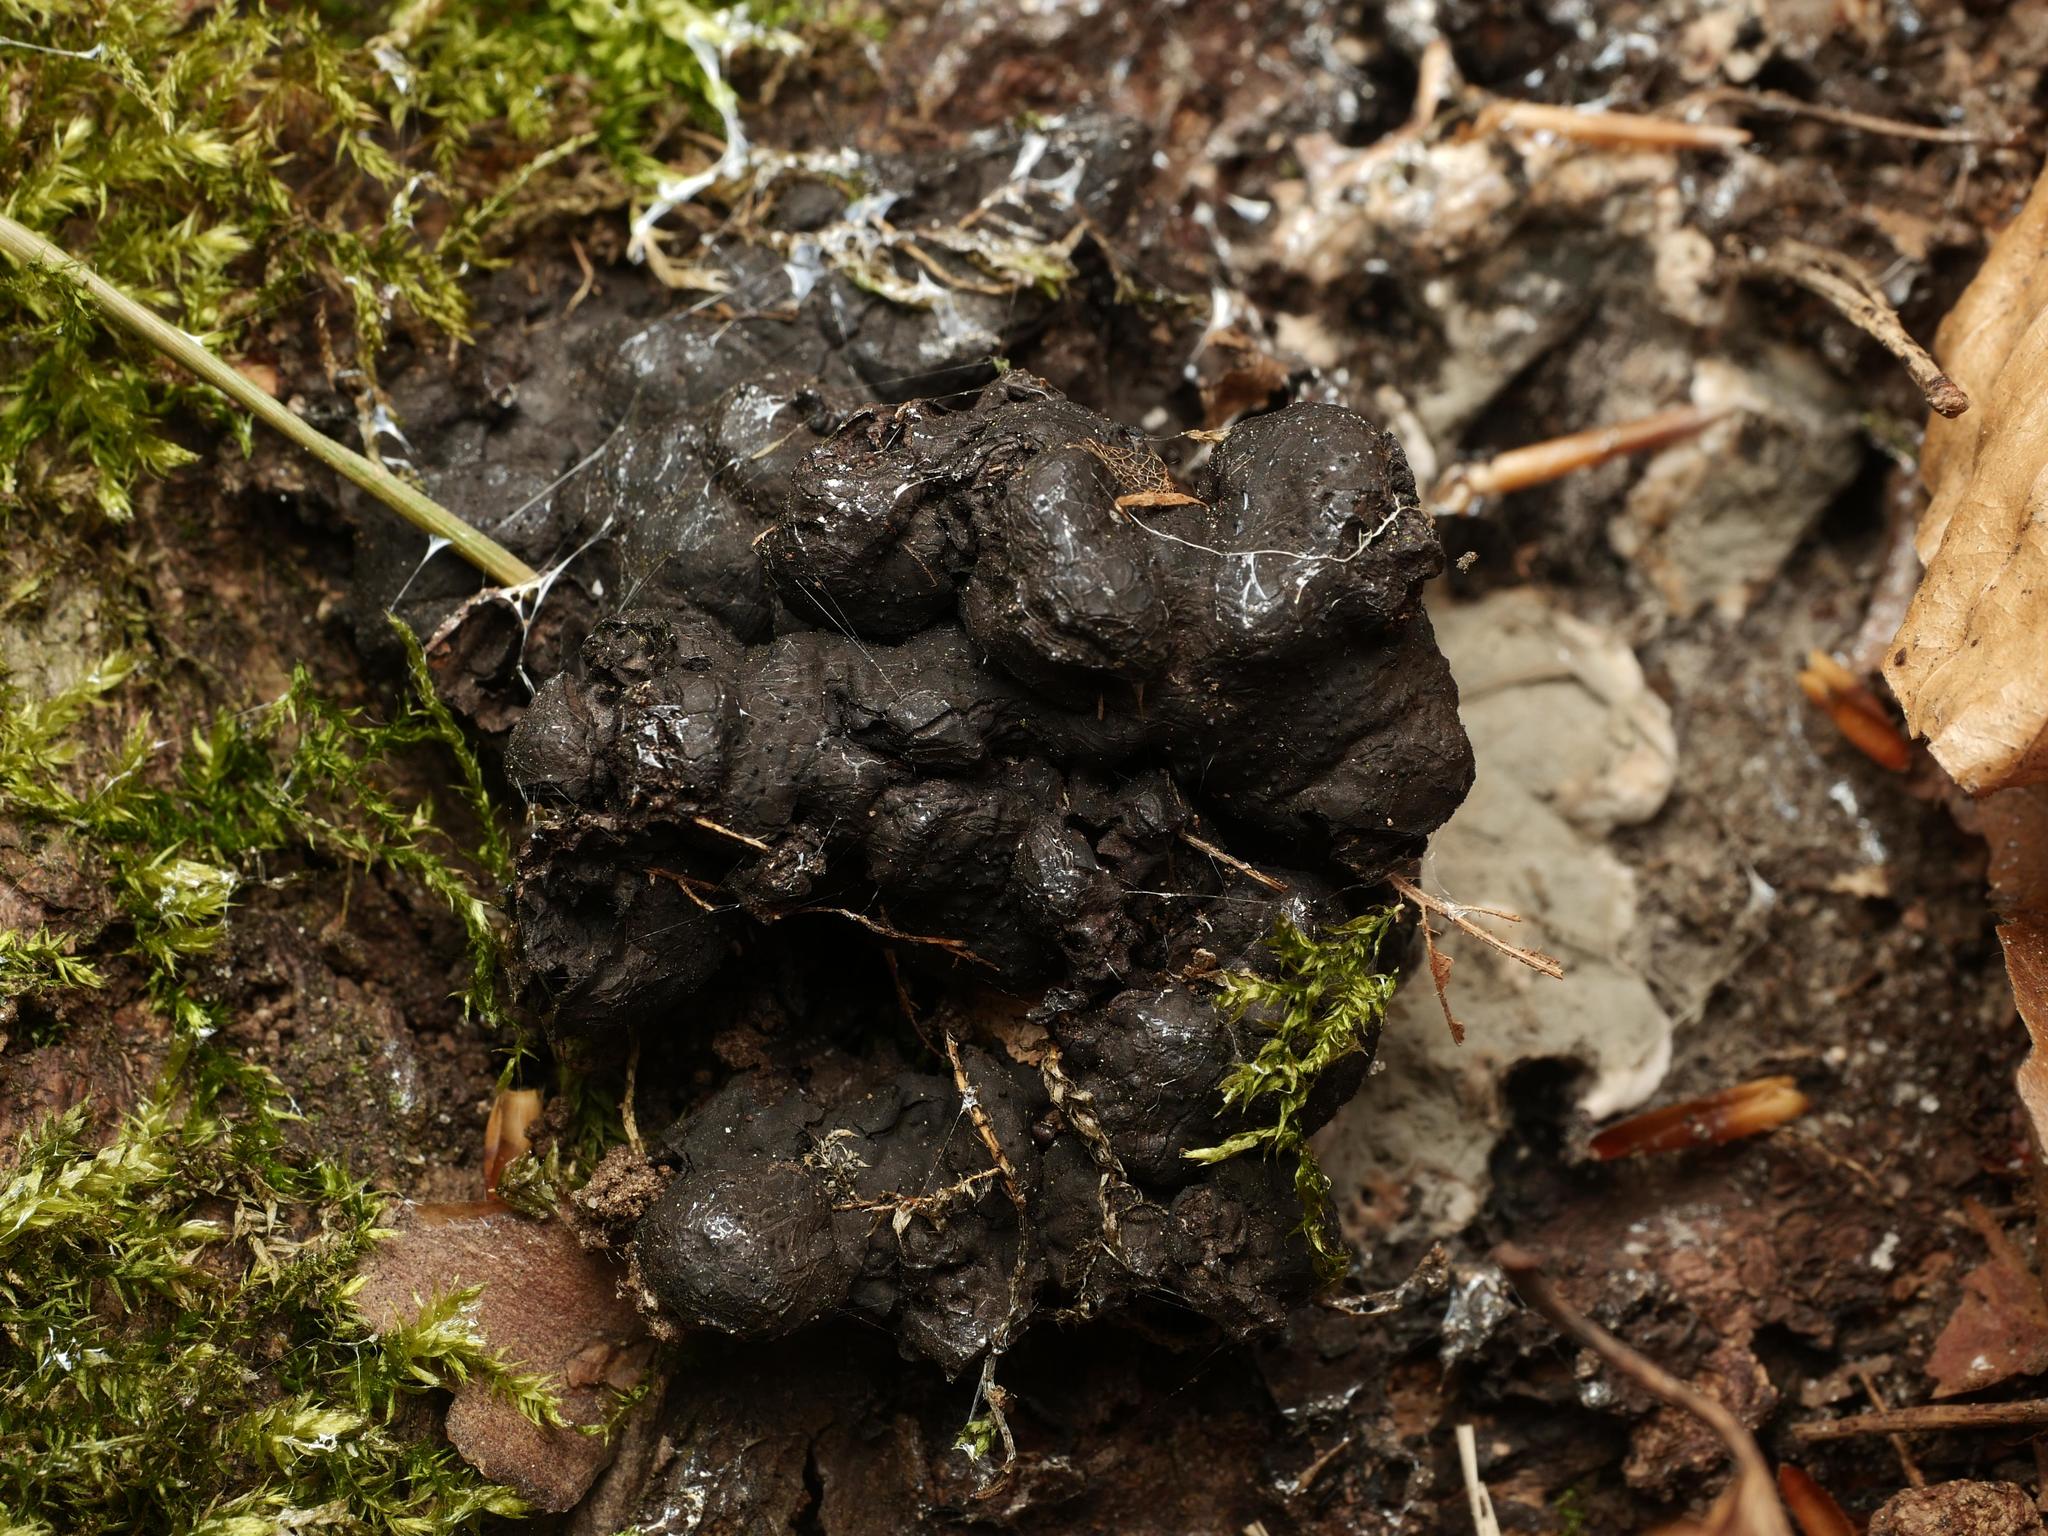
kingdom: Fungi
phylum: Ascomycota
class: Sordariomycetes
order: Xylariales
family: Xylariaceae
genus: Kretzschmaria
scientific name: Kretzschmaria deusta
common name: Brittle cinder
